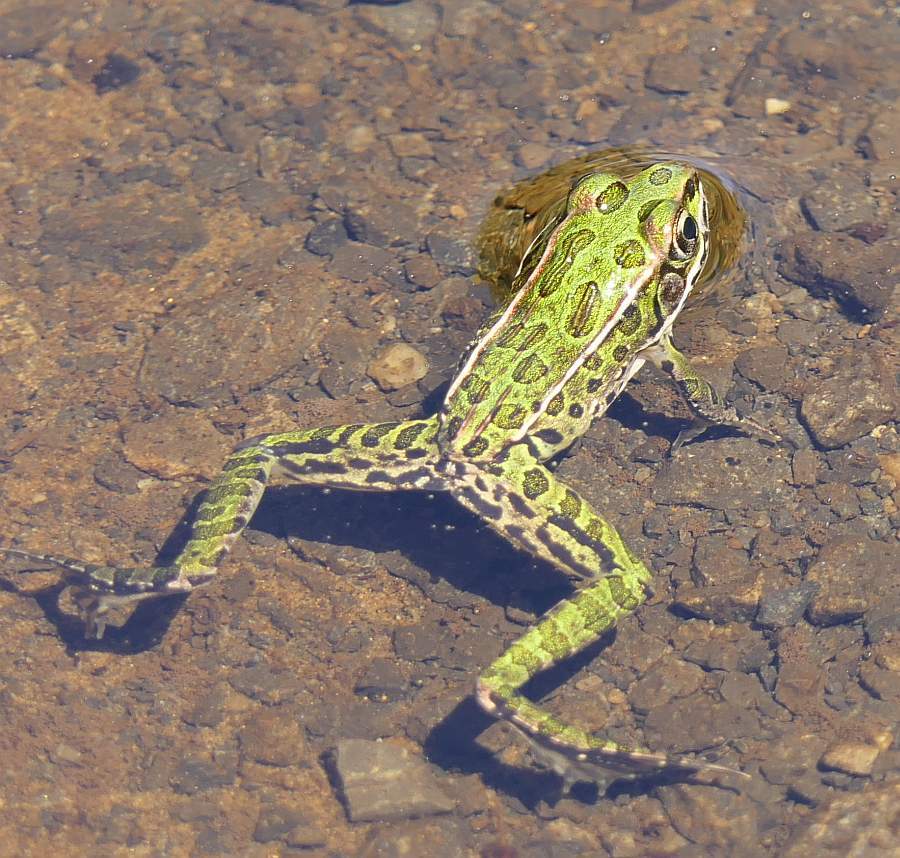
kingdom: Animalia
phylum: Chordata
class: Amphibia
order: Anura
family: Ranidae
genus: Lithobates
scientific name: Lithobates pipiens
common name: Northern leopard frog
